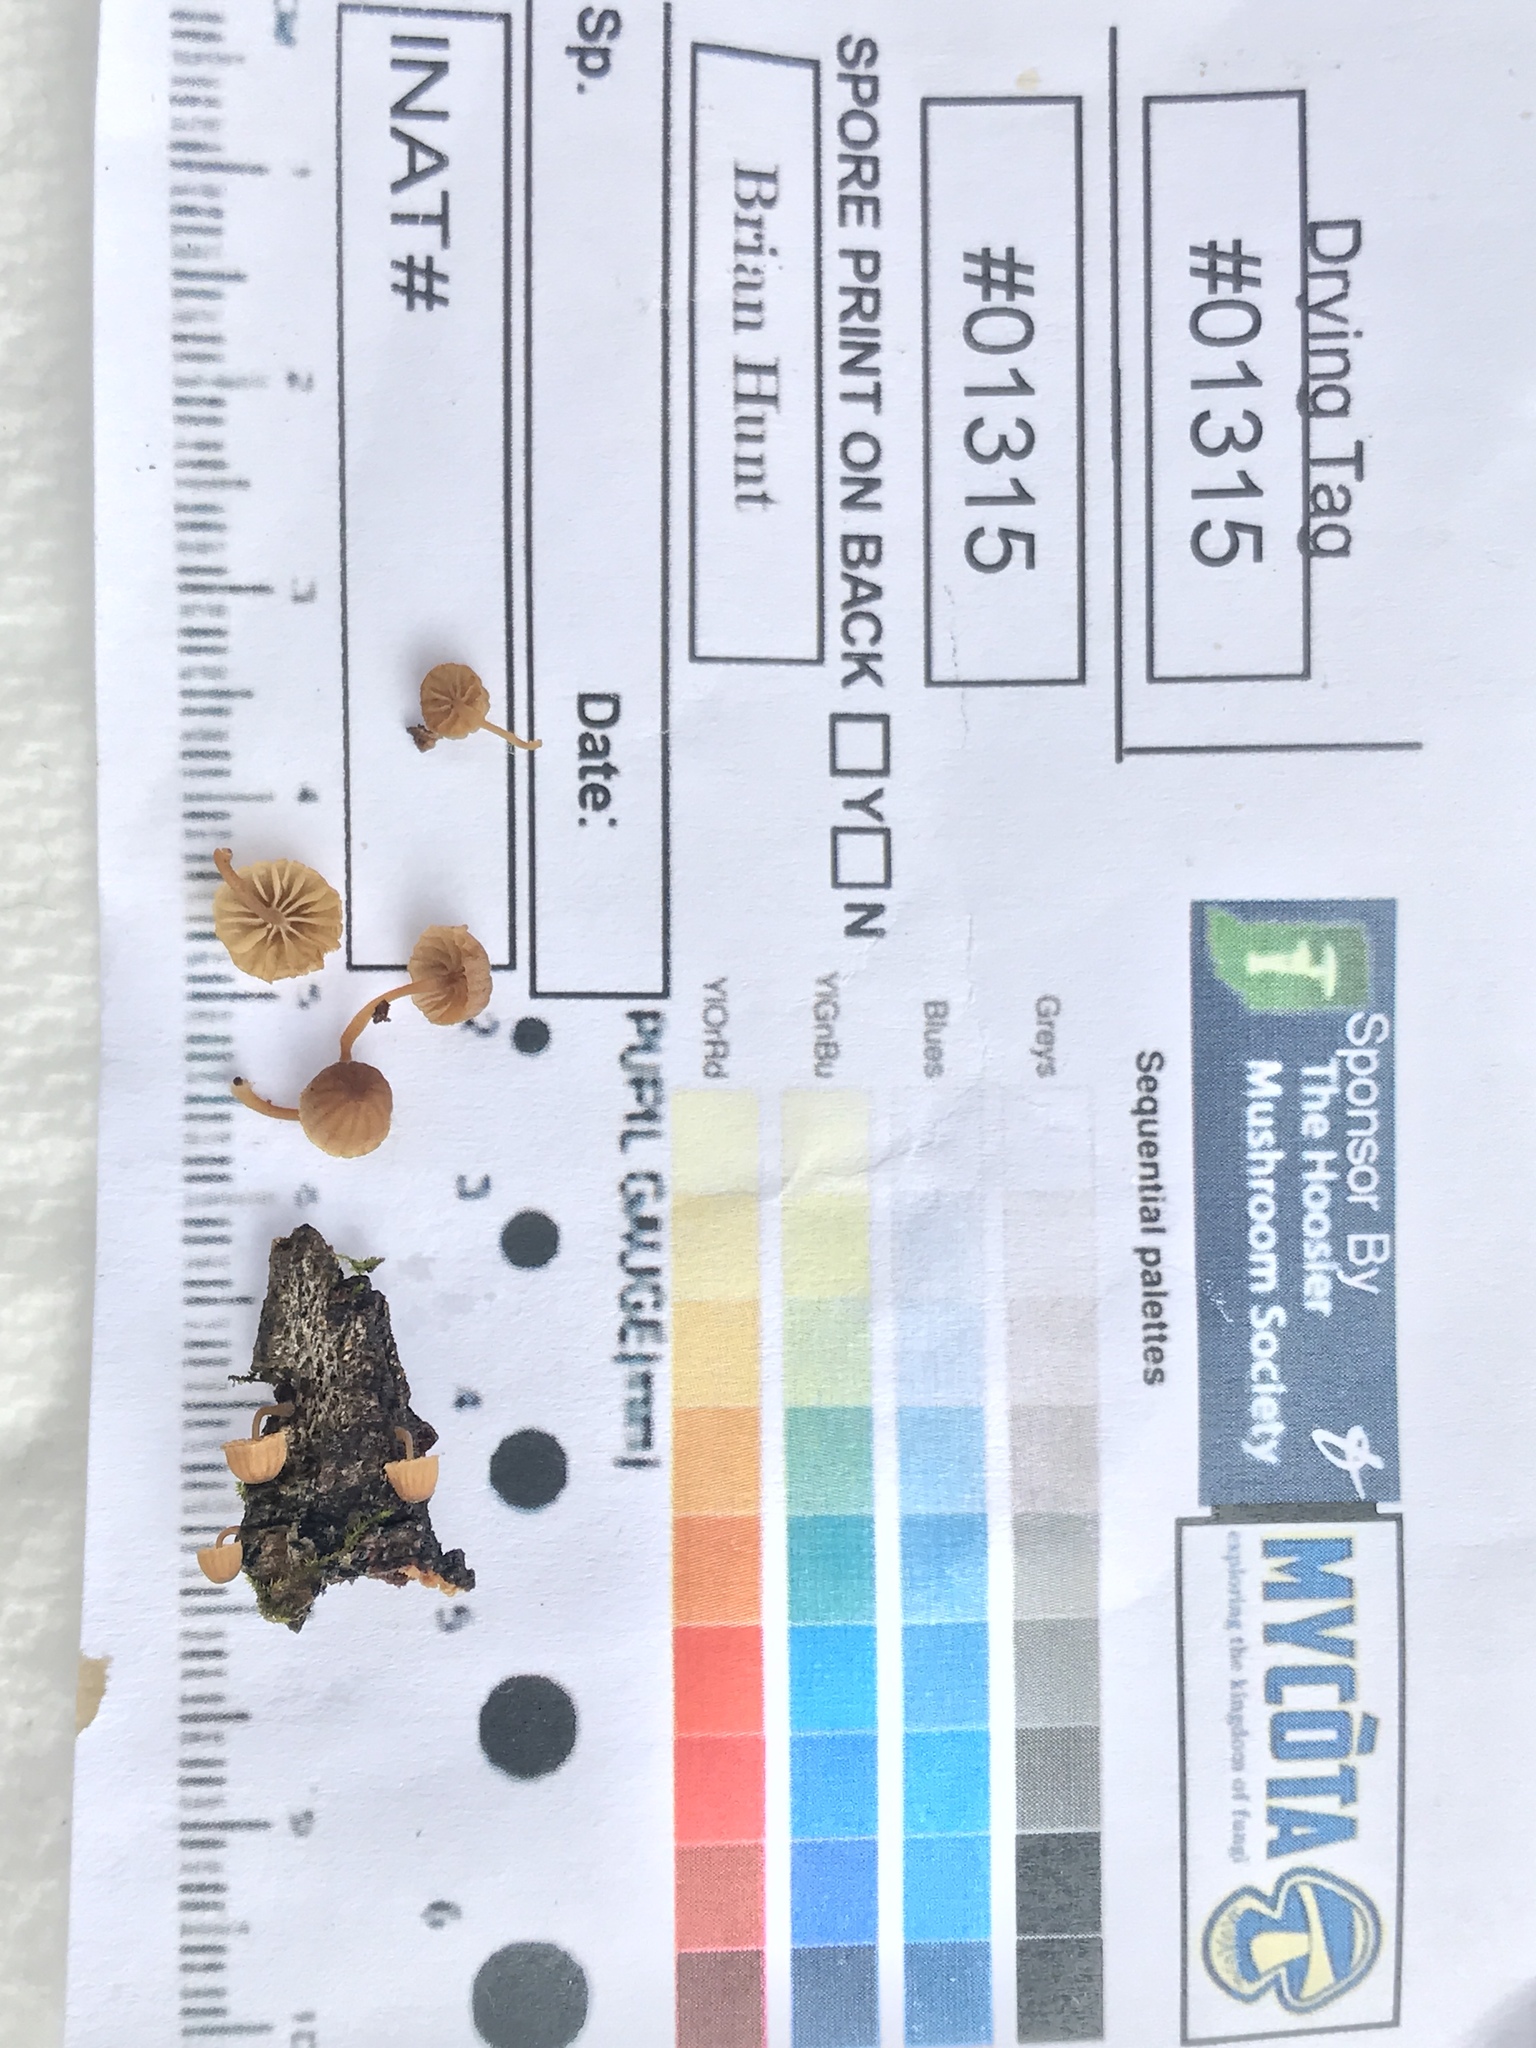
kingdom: Fungi
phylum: Basidiomycota
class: Agaricomycetes
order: Agaricales
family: Mycenaceae
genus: Mycena
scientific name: Mycena meliigena
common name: Mauve bonnet
